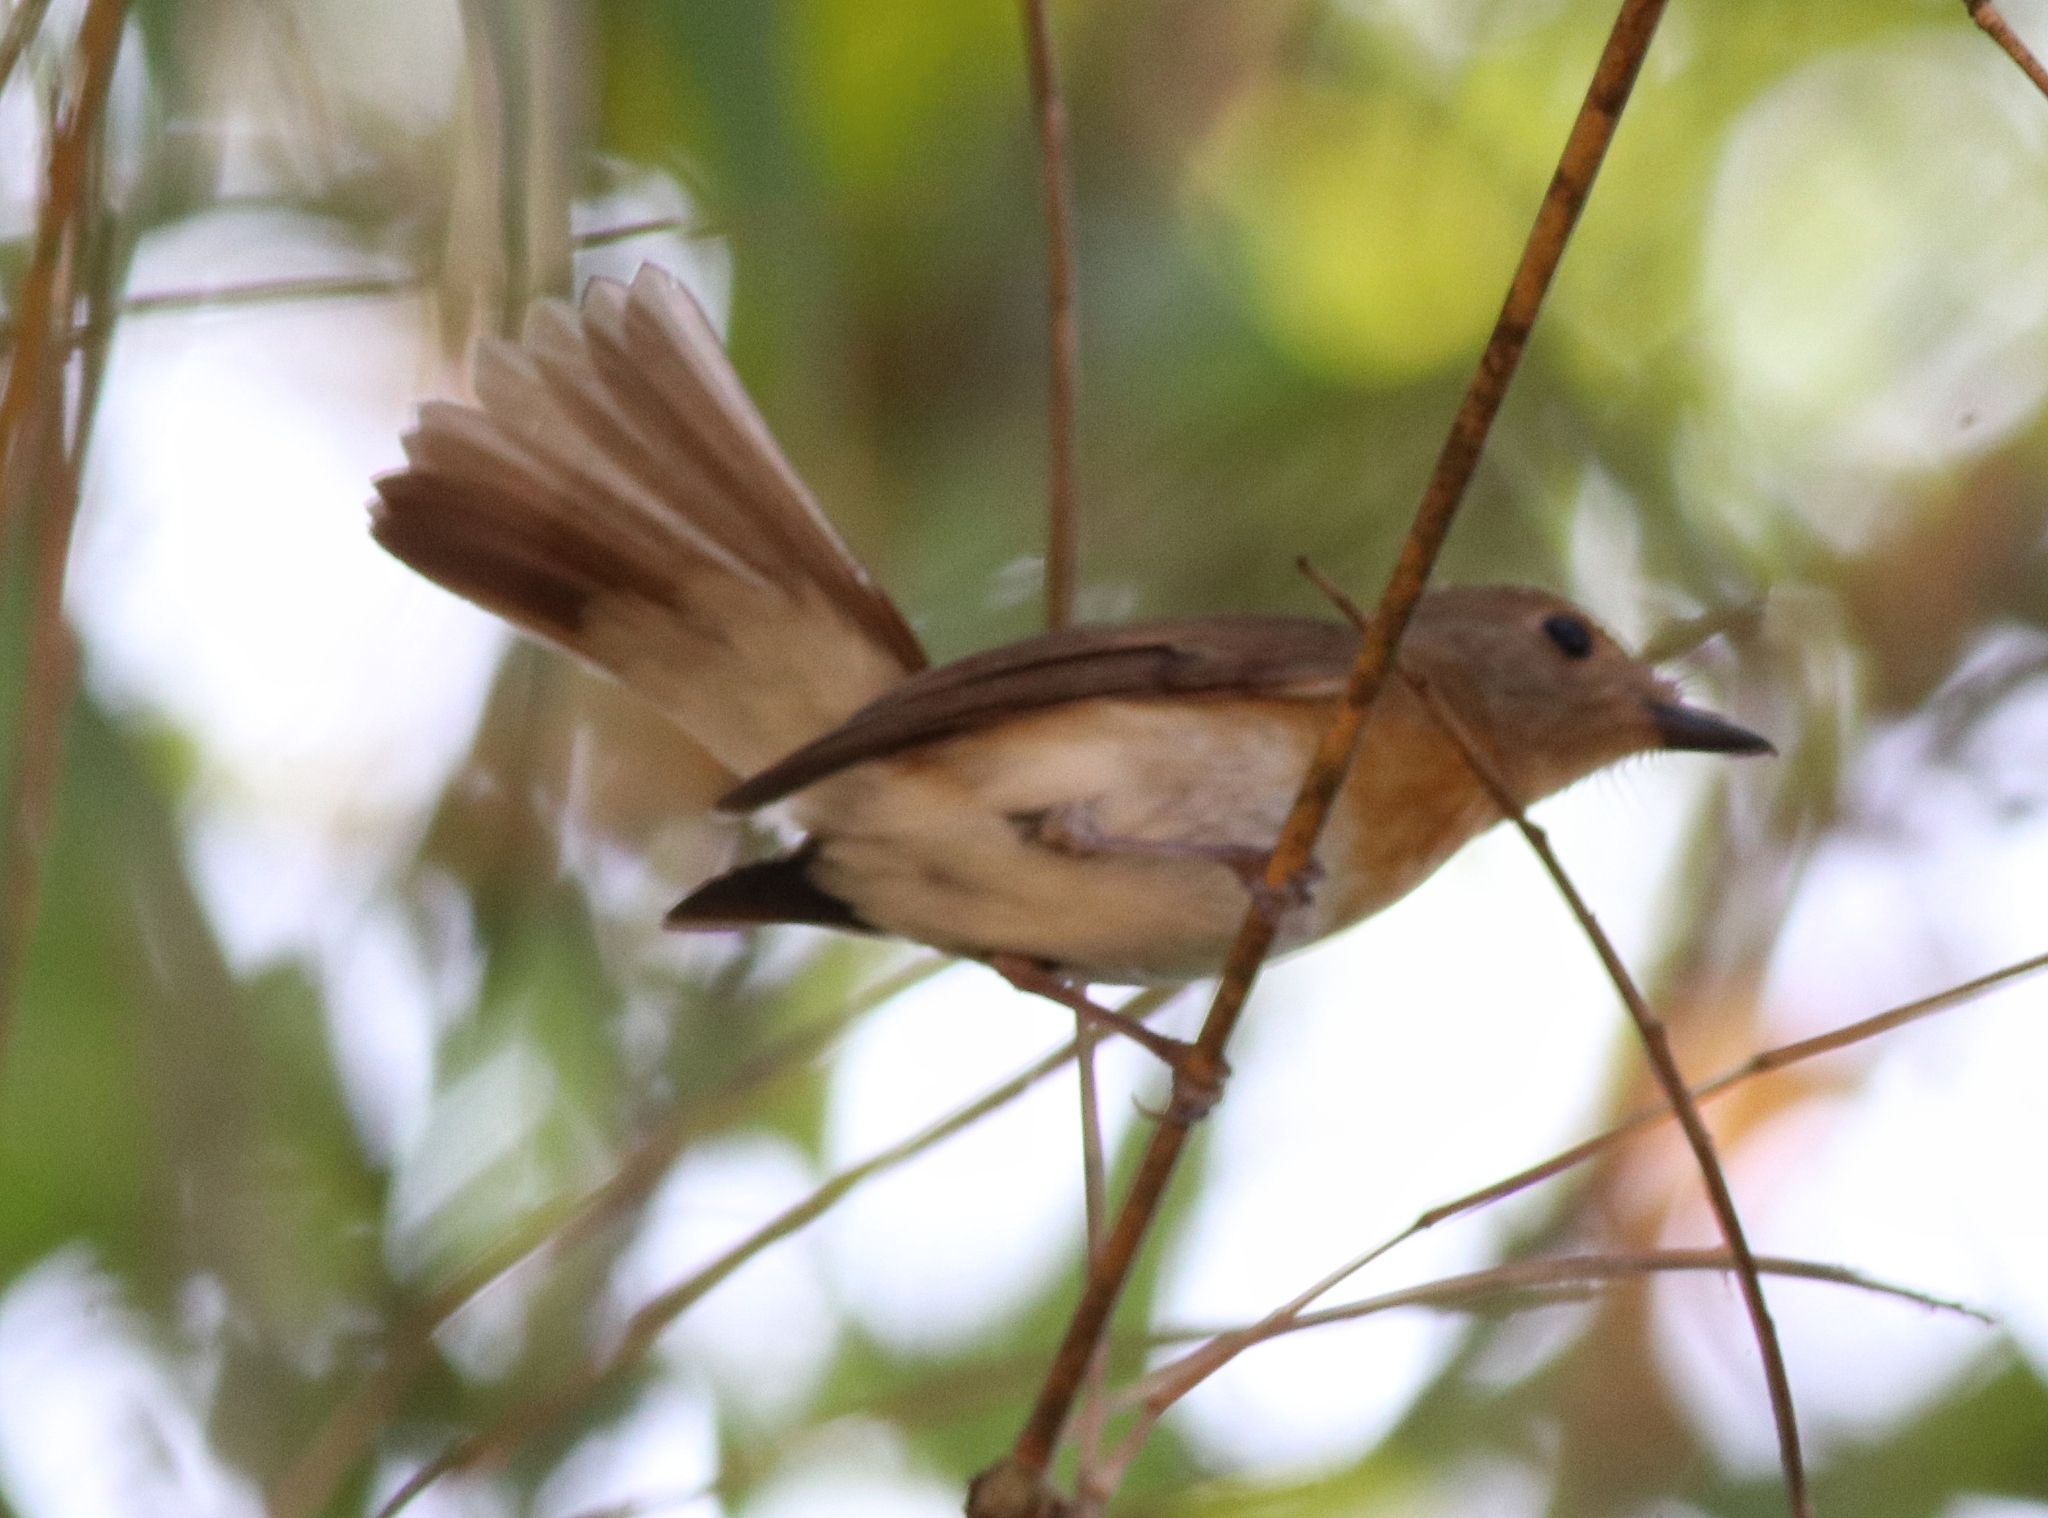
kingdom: Animalia
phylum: Chordata
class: Aves
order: Passeriformes
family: Muscicapidae
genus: Cyornis
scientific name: Cyornis rubeculoides
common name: Blue-throated blue flycatcher
